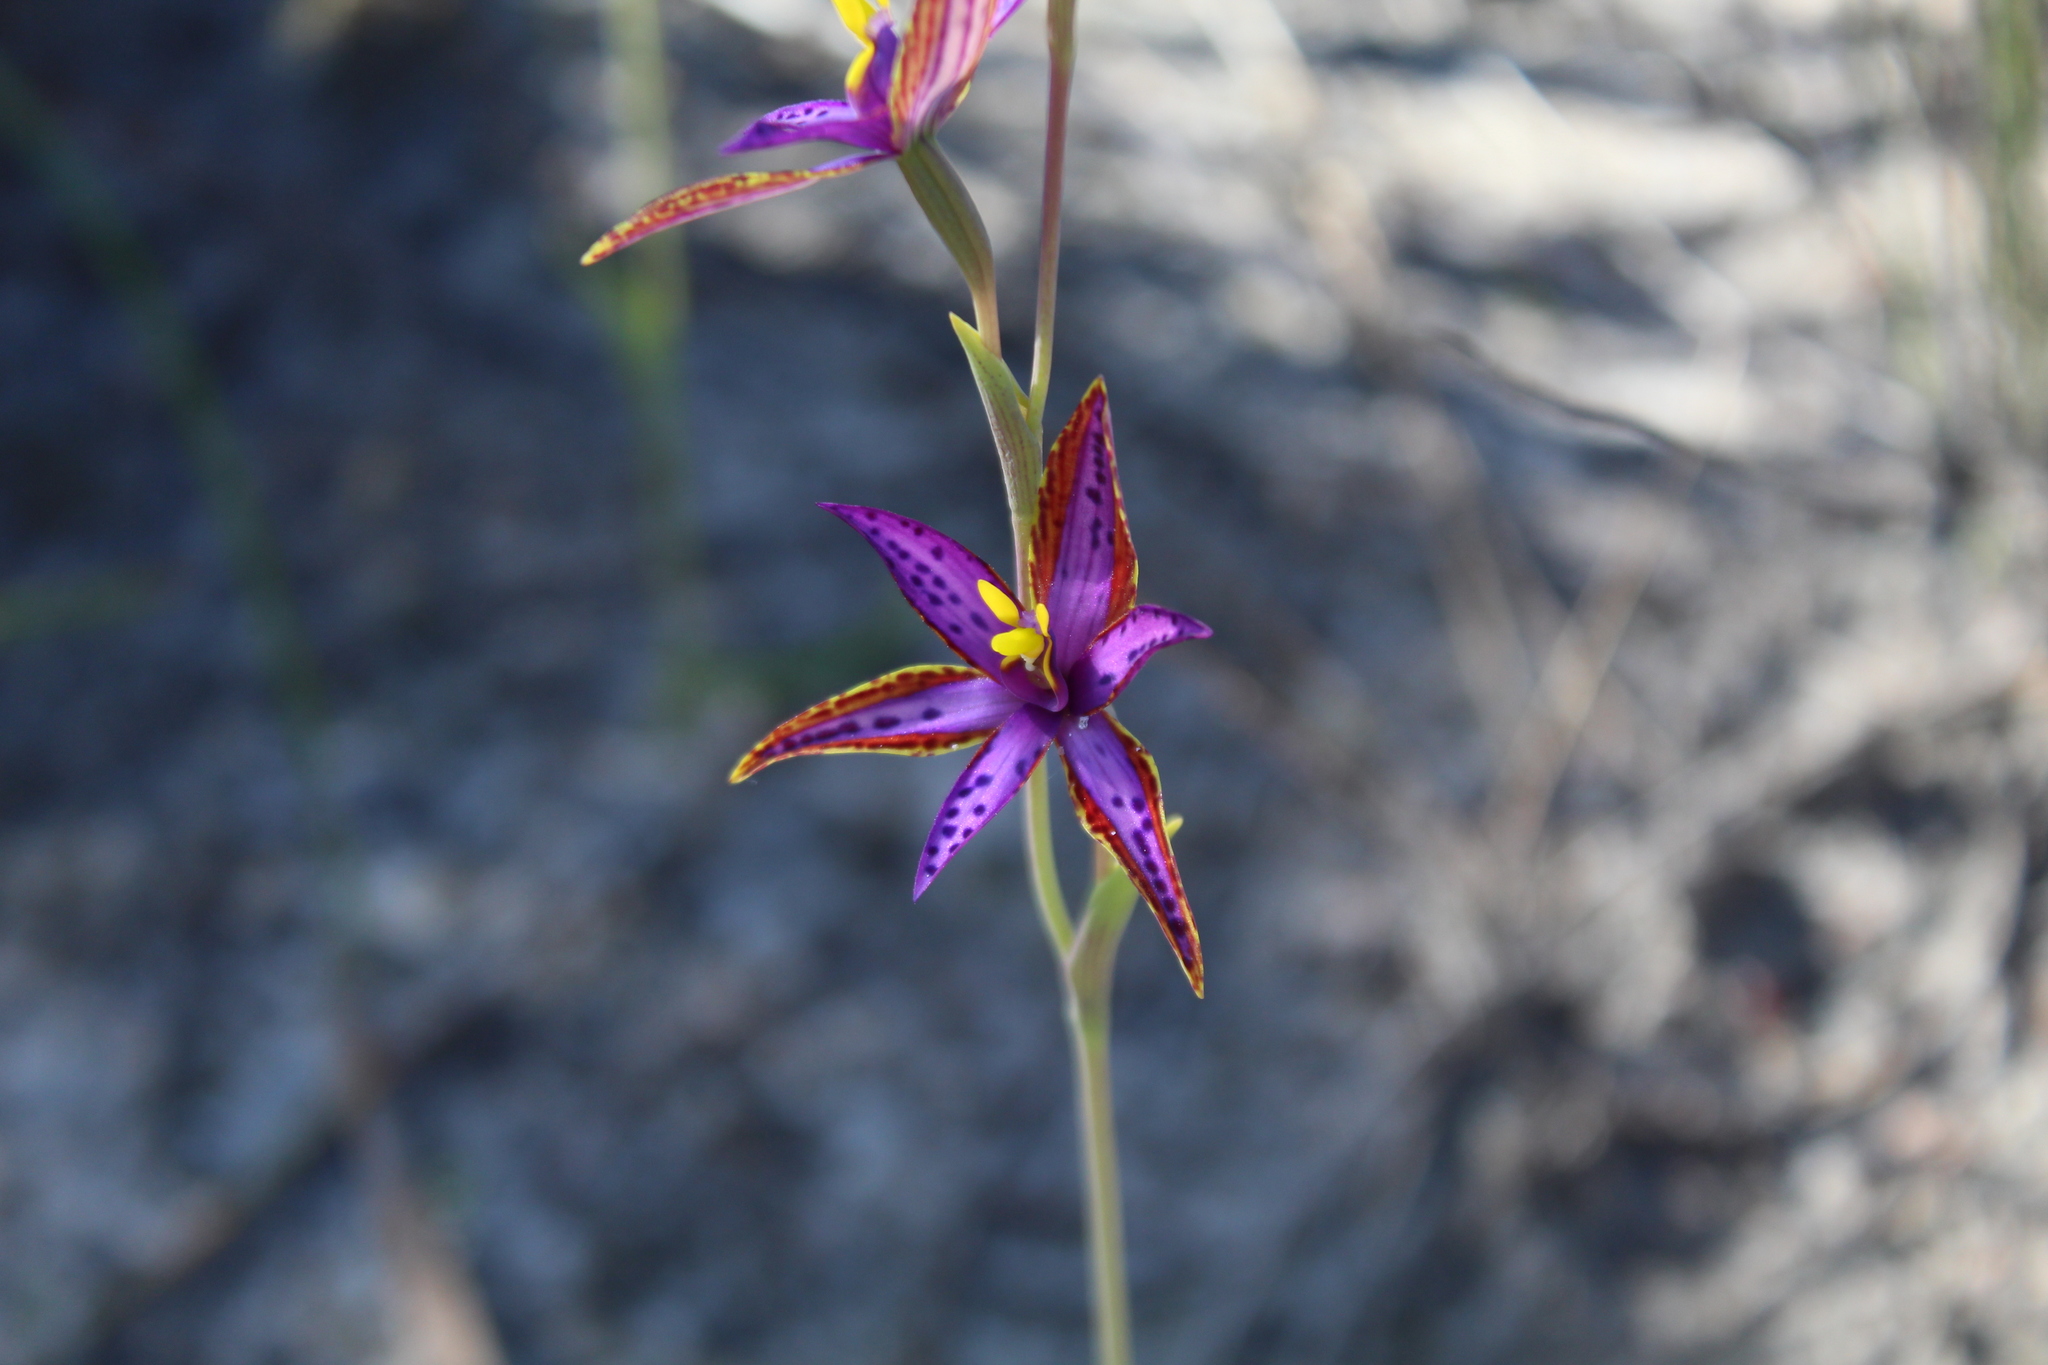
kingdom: Plantae
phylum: Tracheophyta
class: Liliopsida
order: Asparagales
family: Orchidaceae
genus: Thelymitra
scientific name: Thelymitra porphyrosticta
